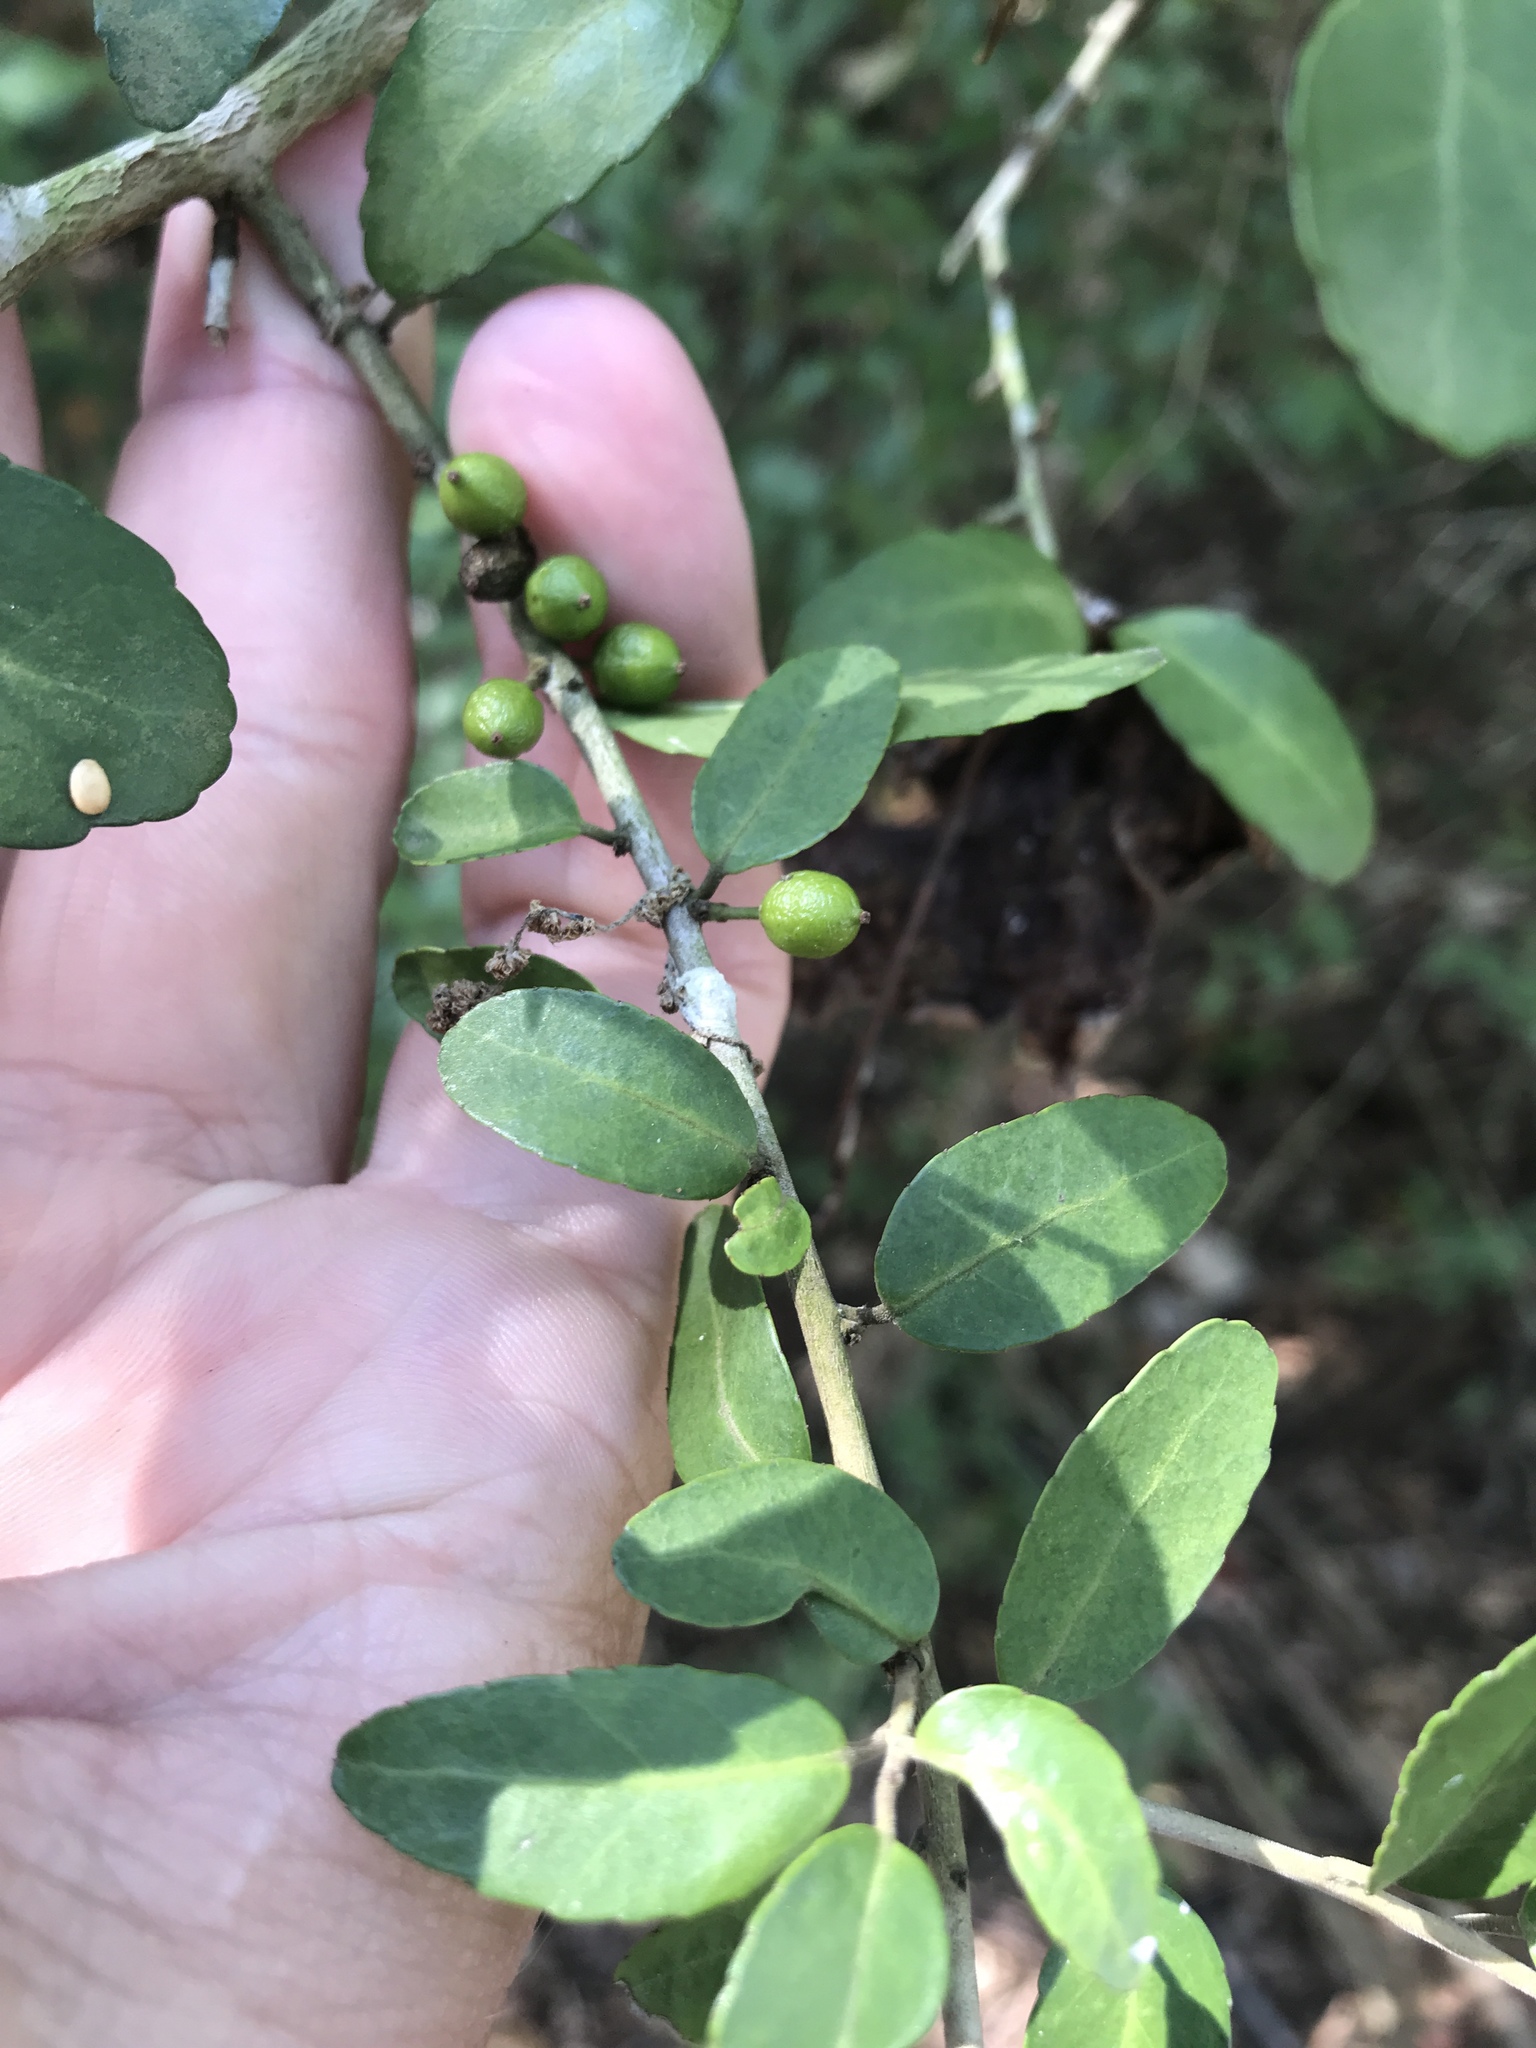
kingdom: Plantae
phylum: Tracheophyta
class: Magnoliopsida
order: Aquifoliales
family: Aquifoliaceae
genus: Ilex
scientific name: Ilex vomitoria
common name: Yaupon holly
